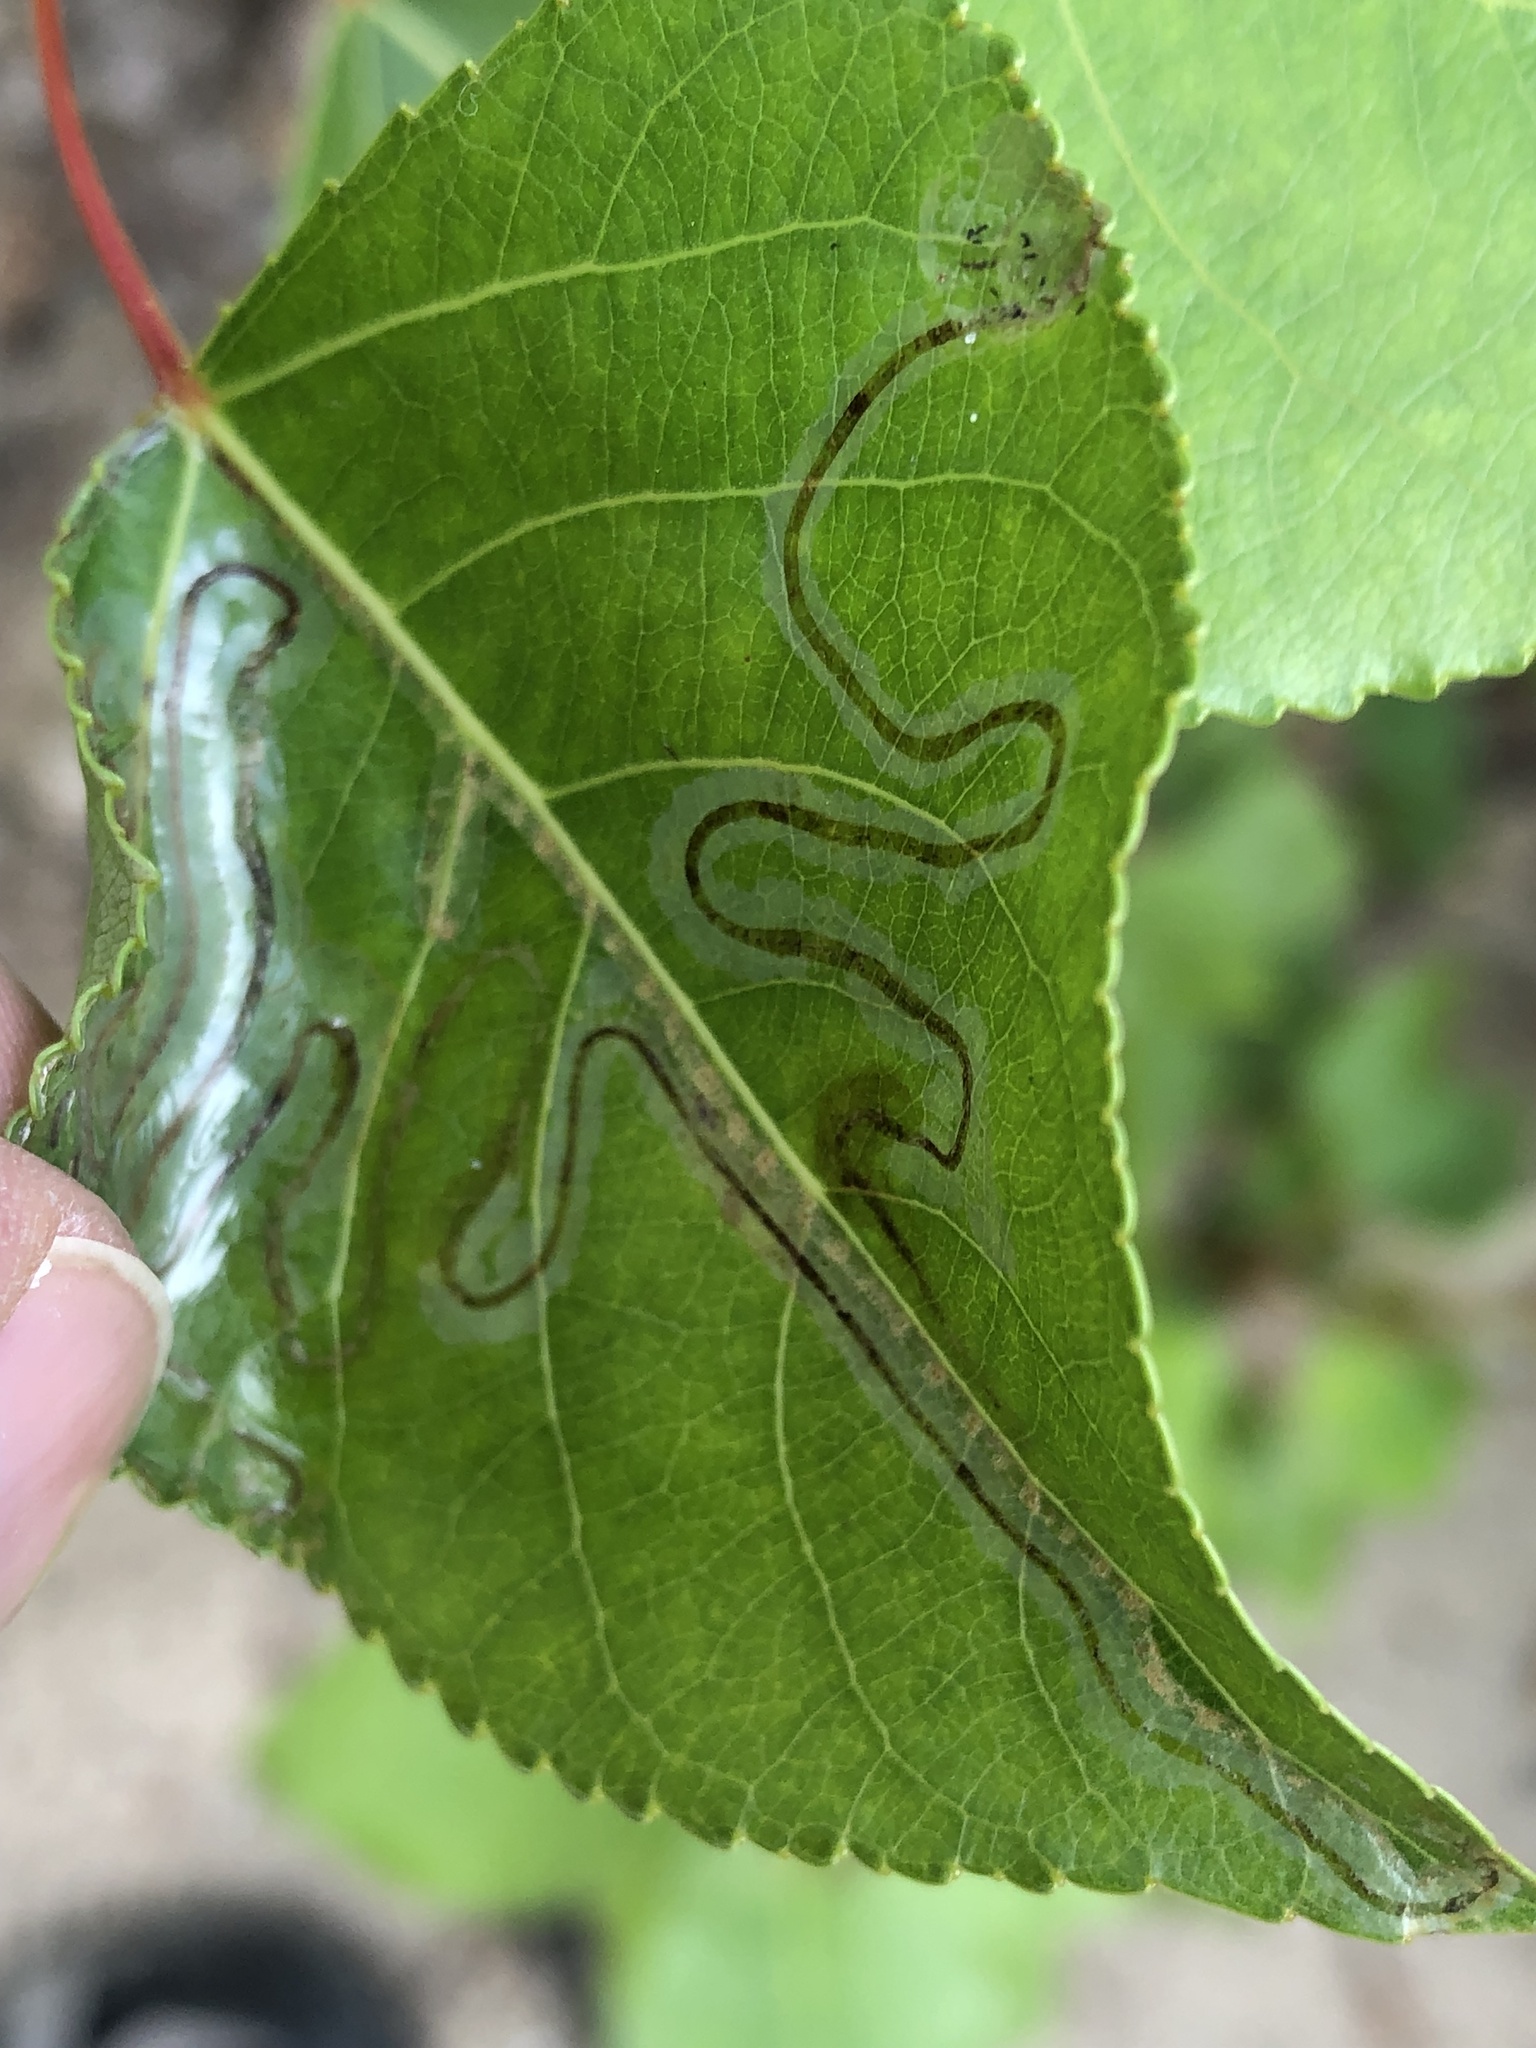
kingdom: Animalia
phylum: Arthropoda
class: Insecta
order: Lepidoptera
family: Gracillariidae
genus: Phyllocnistis
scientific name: Phyllocnistis populiella
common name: Aspen serpentine leafminer moth
